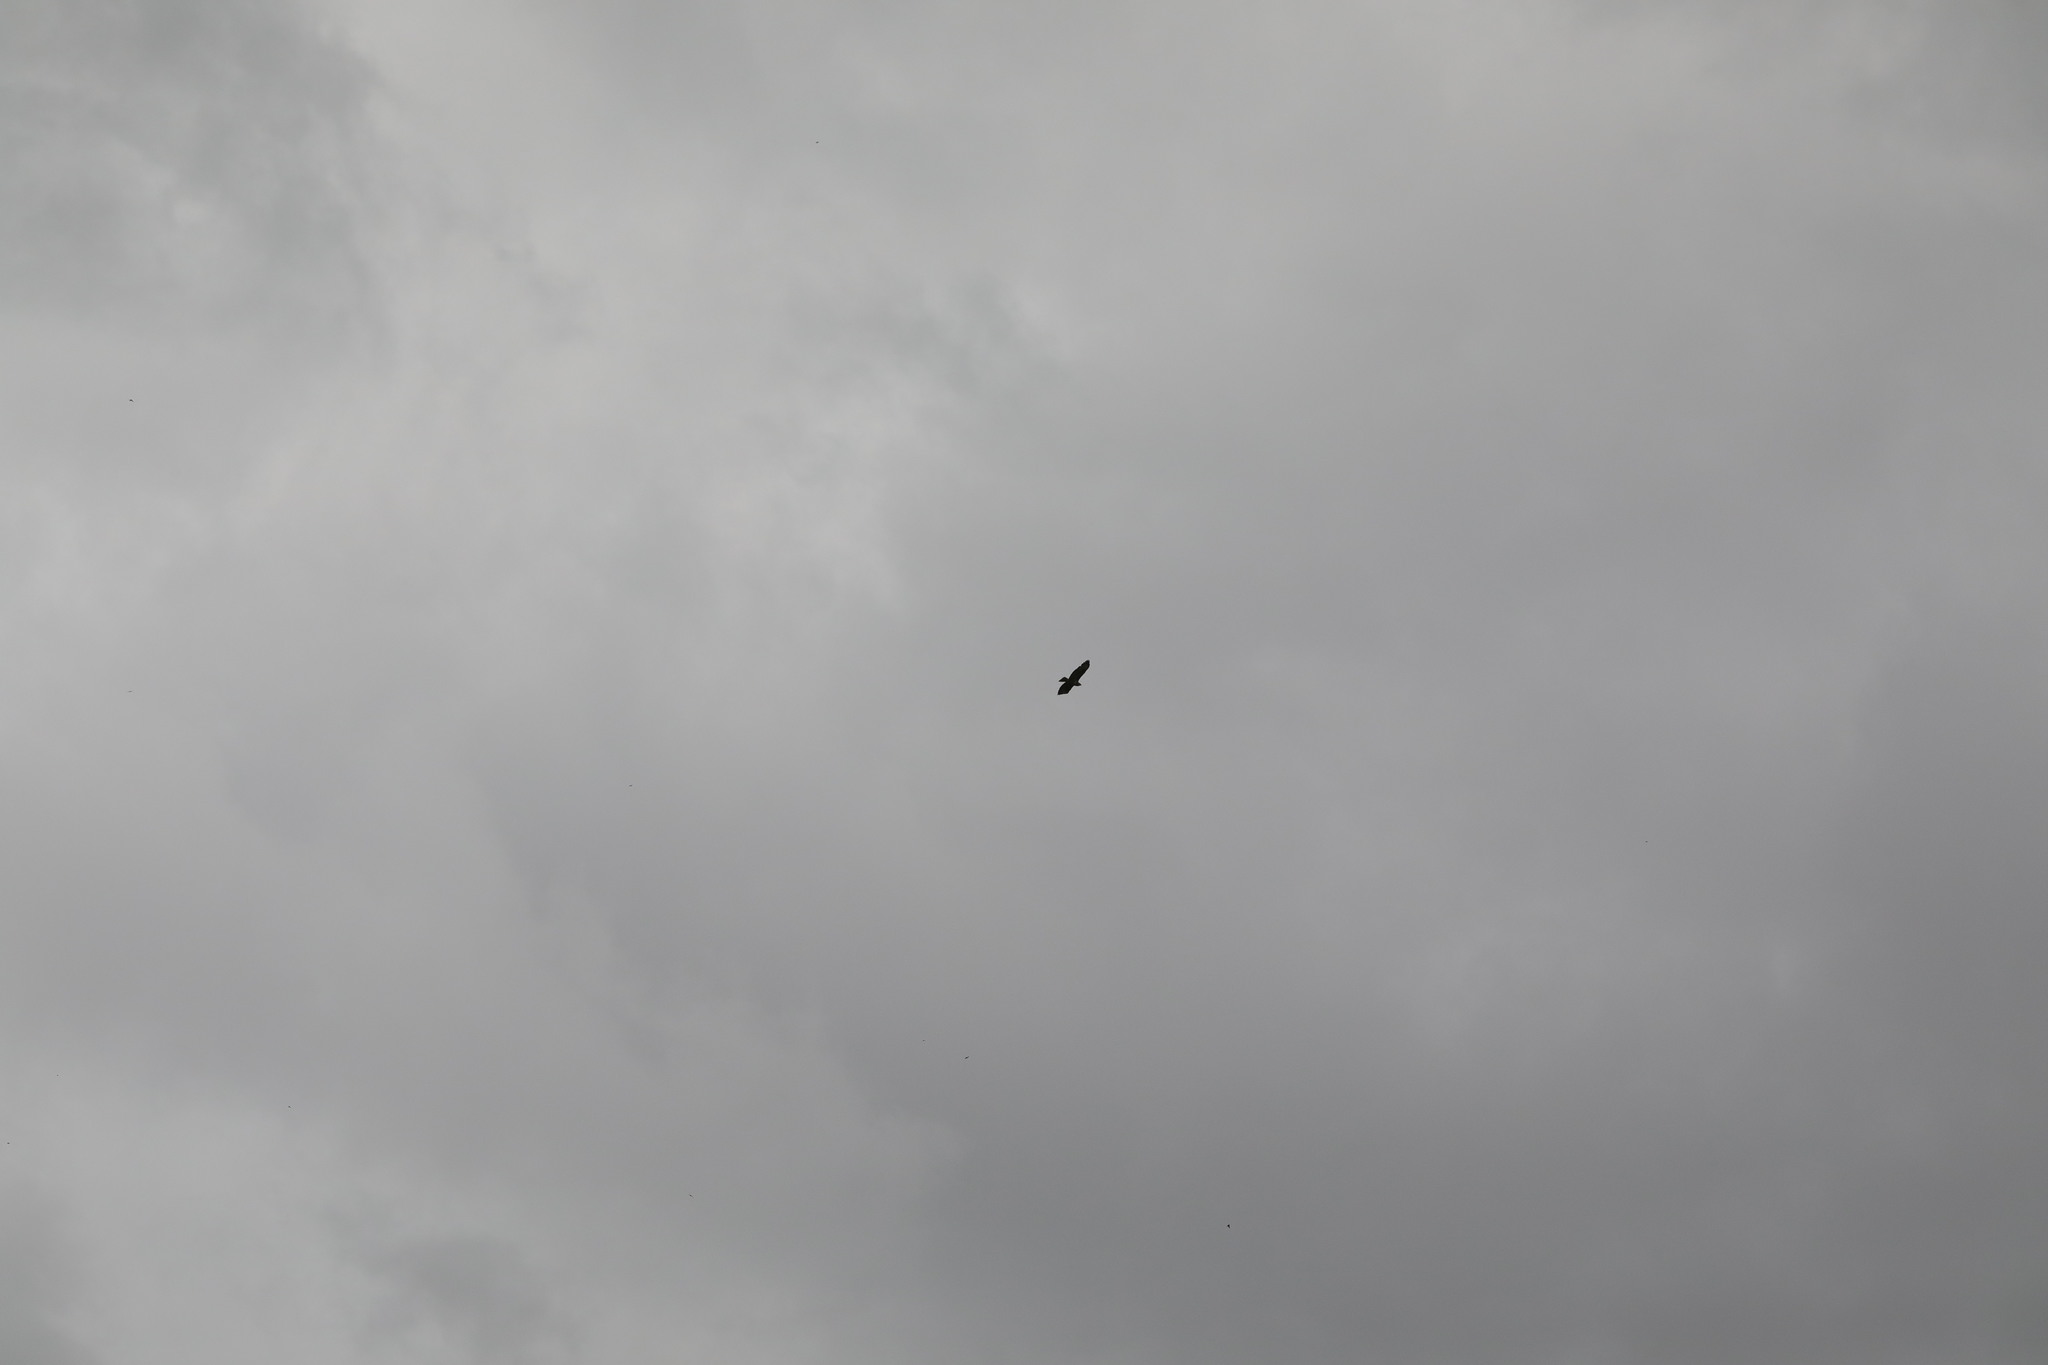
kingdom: Animalia
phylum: Chordata
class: Aves
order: Accipitriformes
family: Accipitridae
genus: Buteo
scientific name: Buteo buteo
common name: Common buzzard
